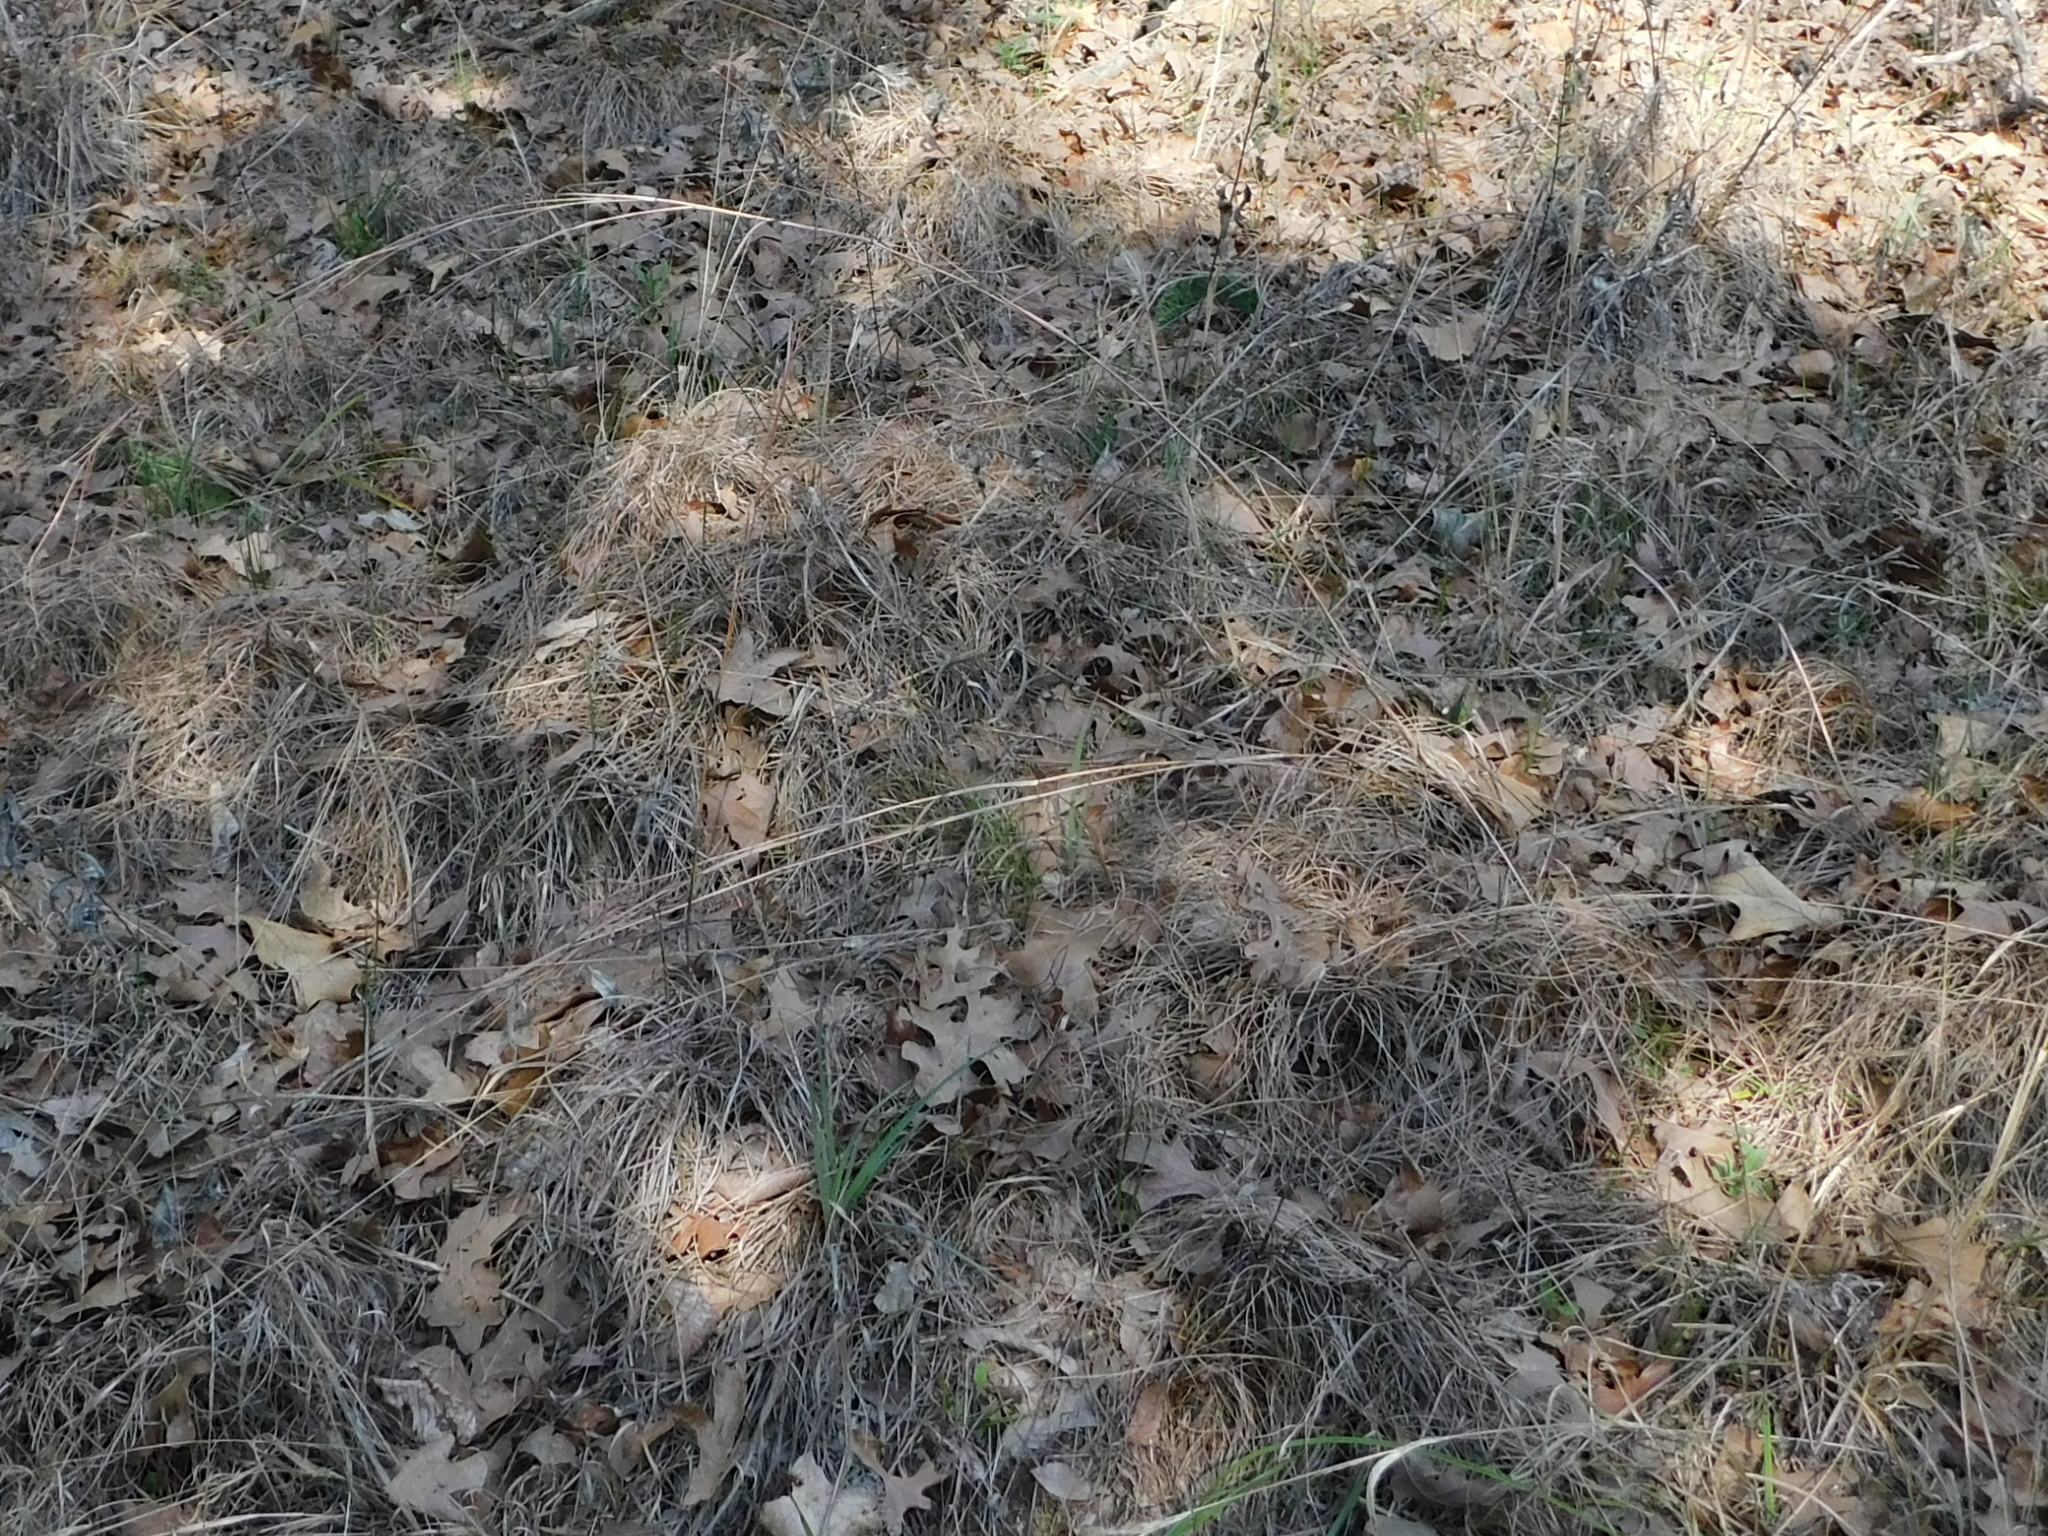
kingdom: Plantae
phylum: Tracheophyta
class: Liliopsida
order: Poales
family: Poaceae
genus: Schizachyrium
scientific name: Schizachyrium scoparium
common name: Little bluestem
